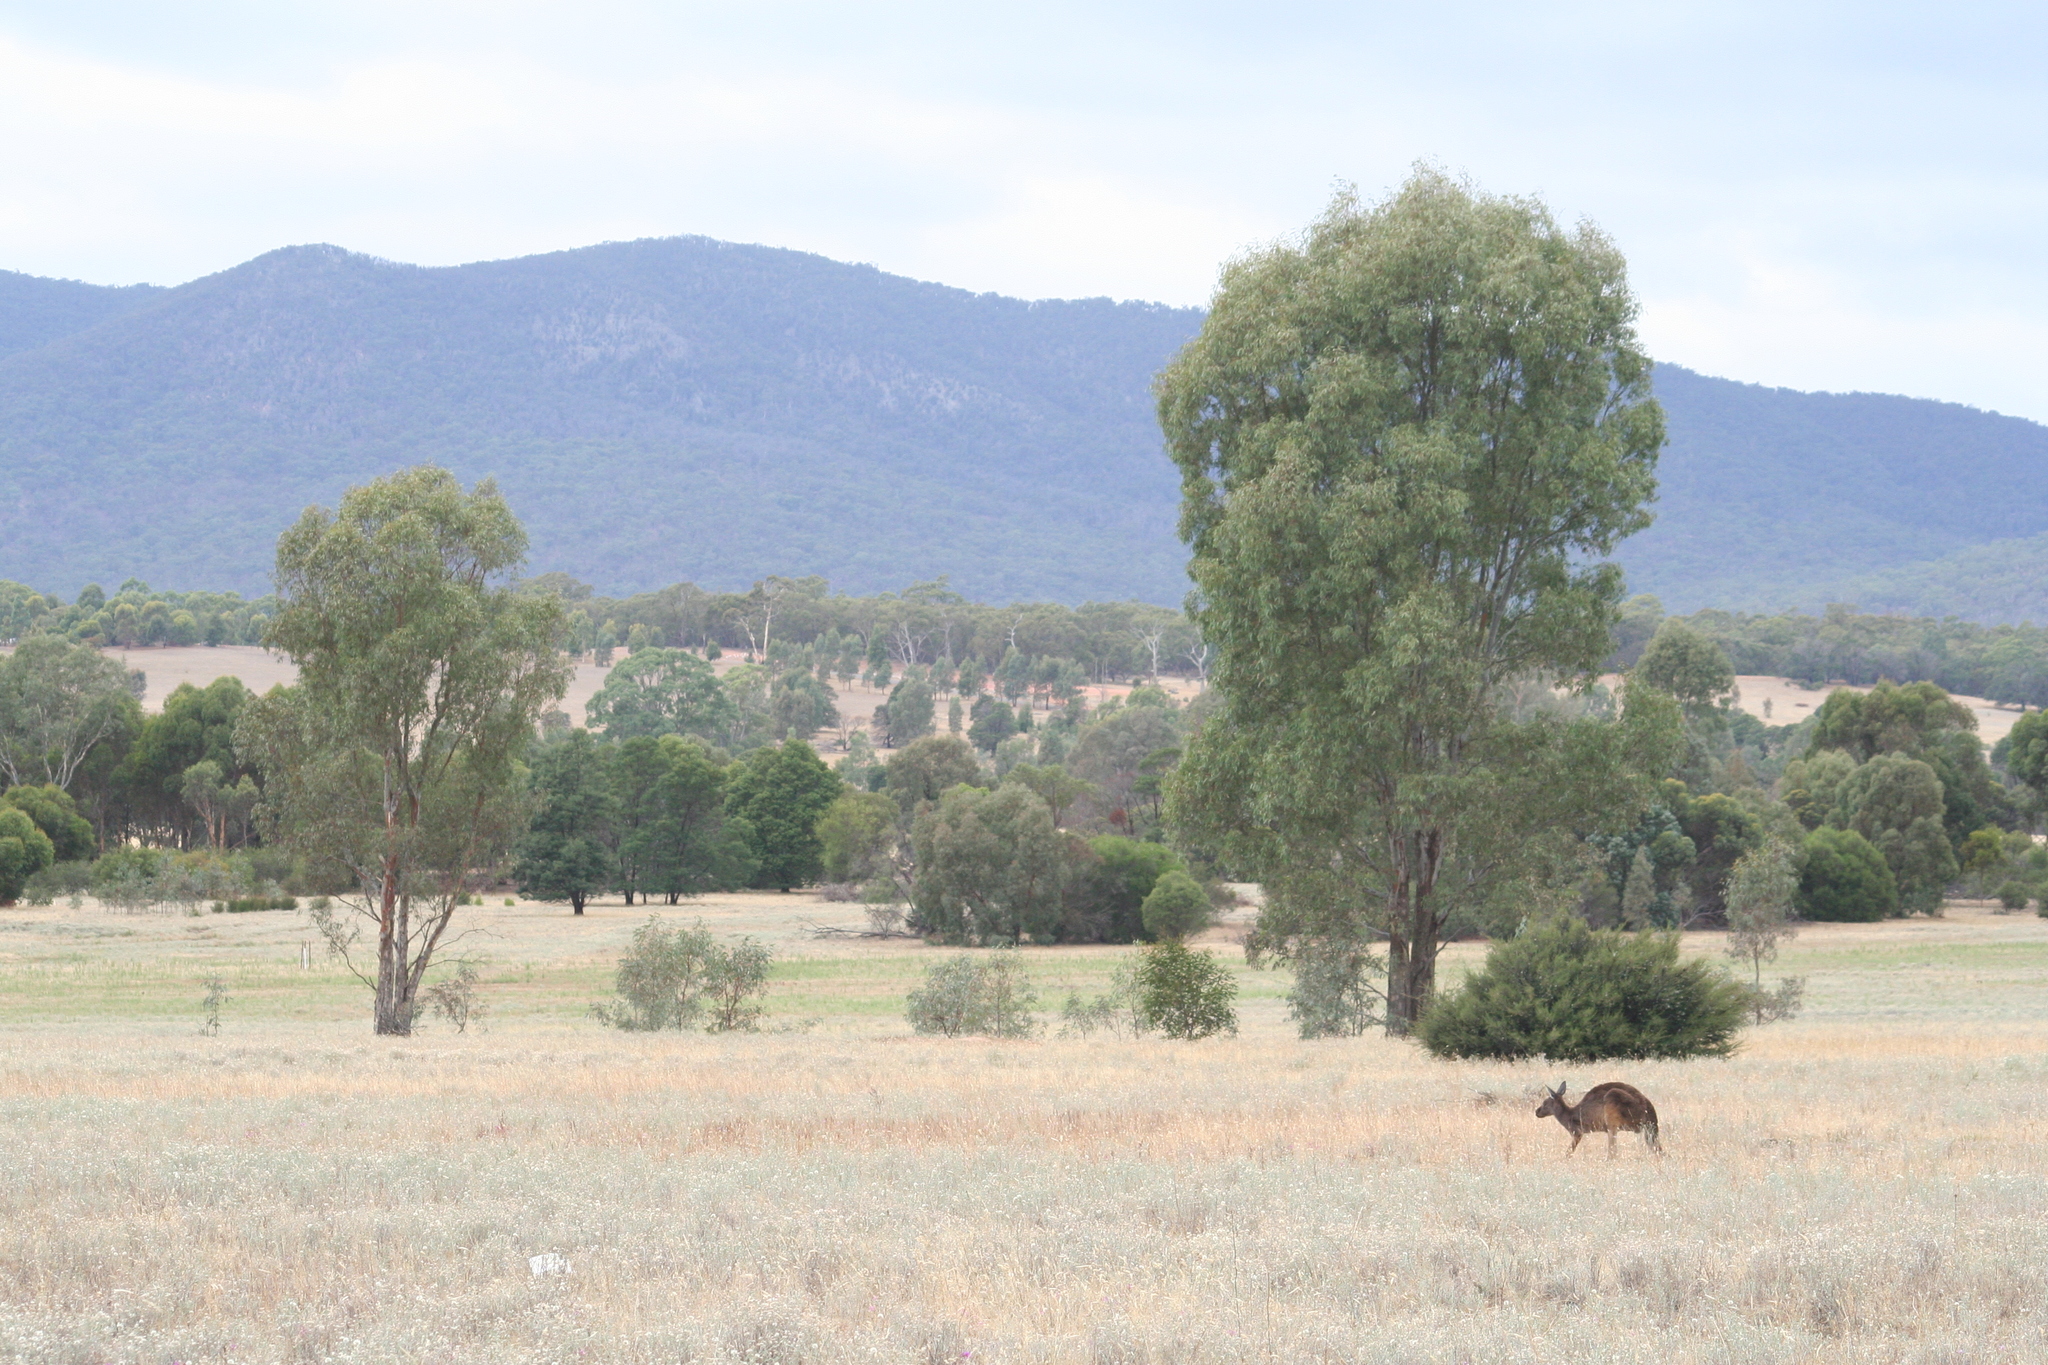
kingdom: Animalia
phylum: Chordata
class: Mammalia
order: Diprotodontia
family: Macropodidae
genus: Macropus
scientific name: Macropus fuliginosus
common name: Western grey kangaroo
